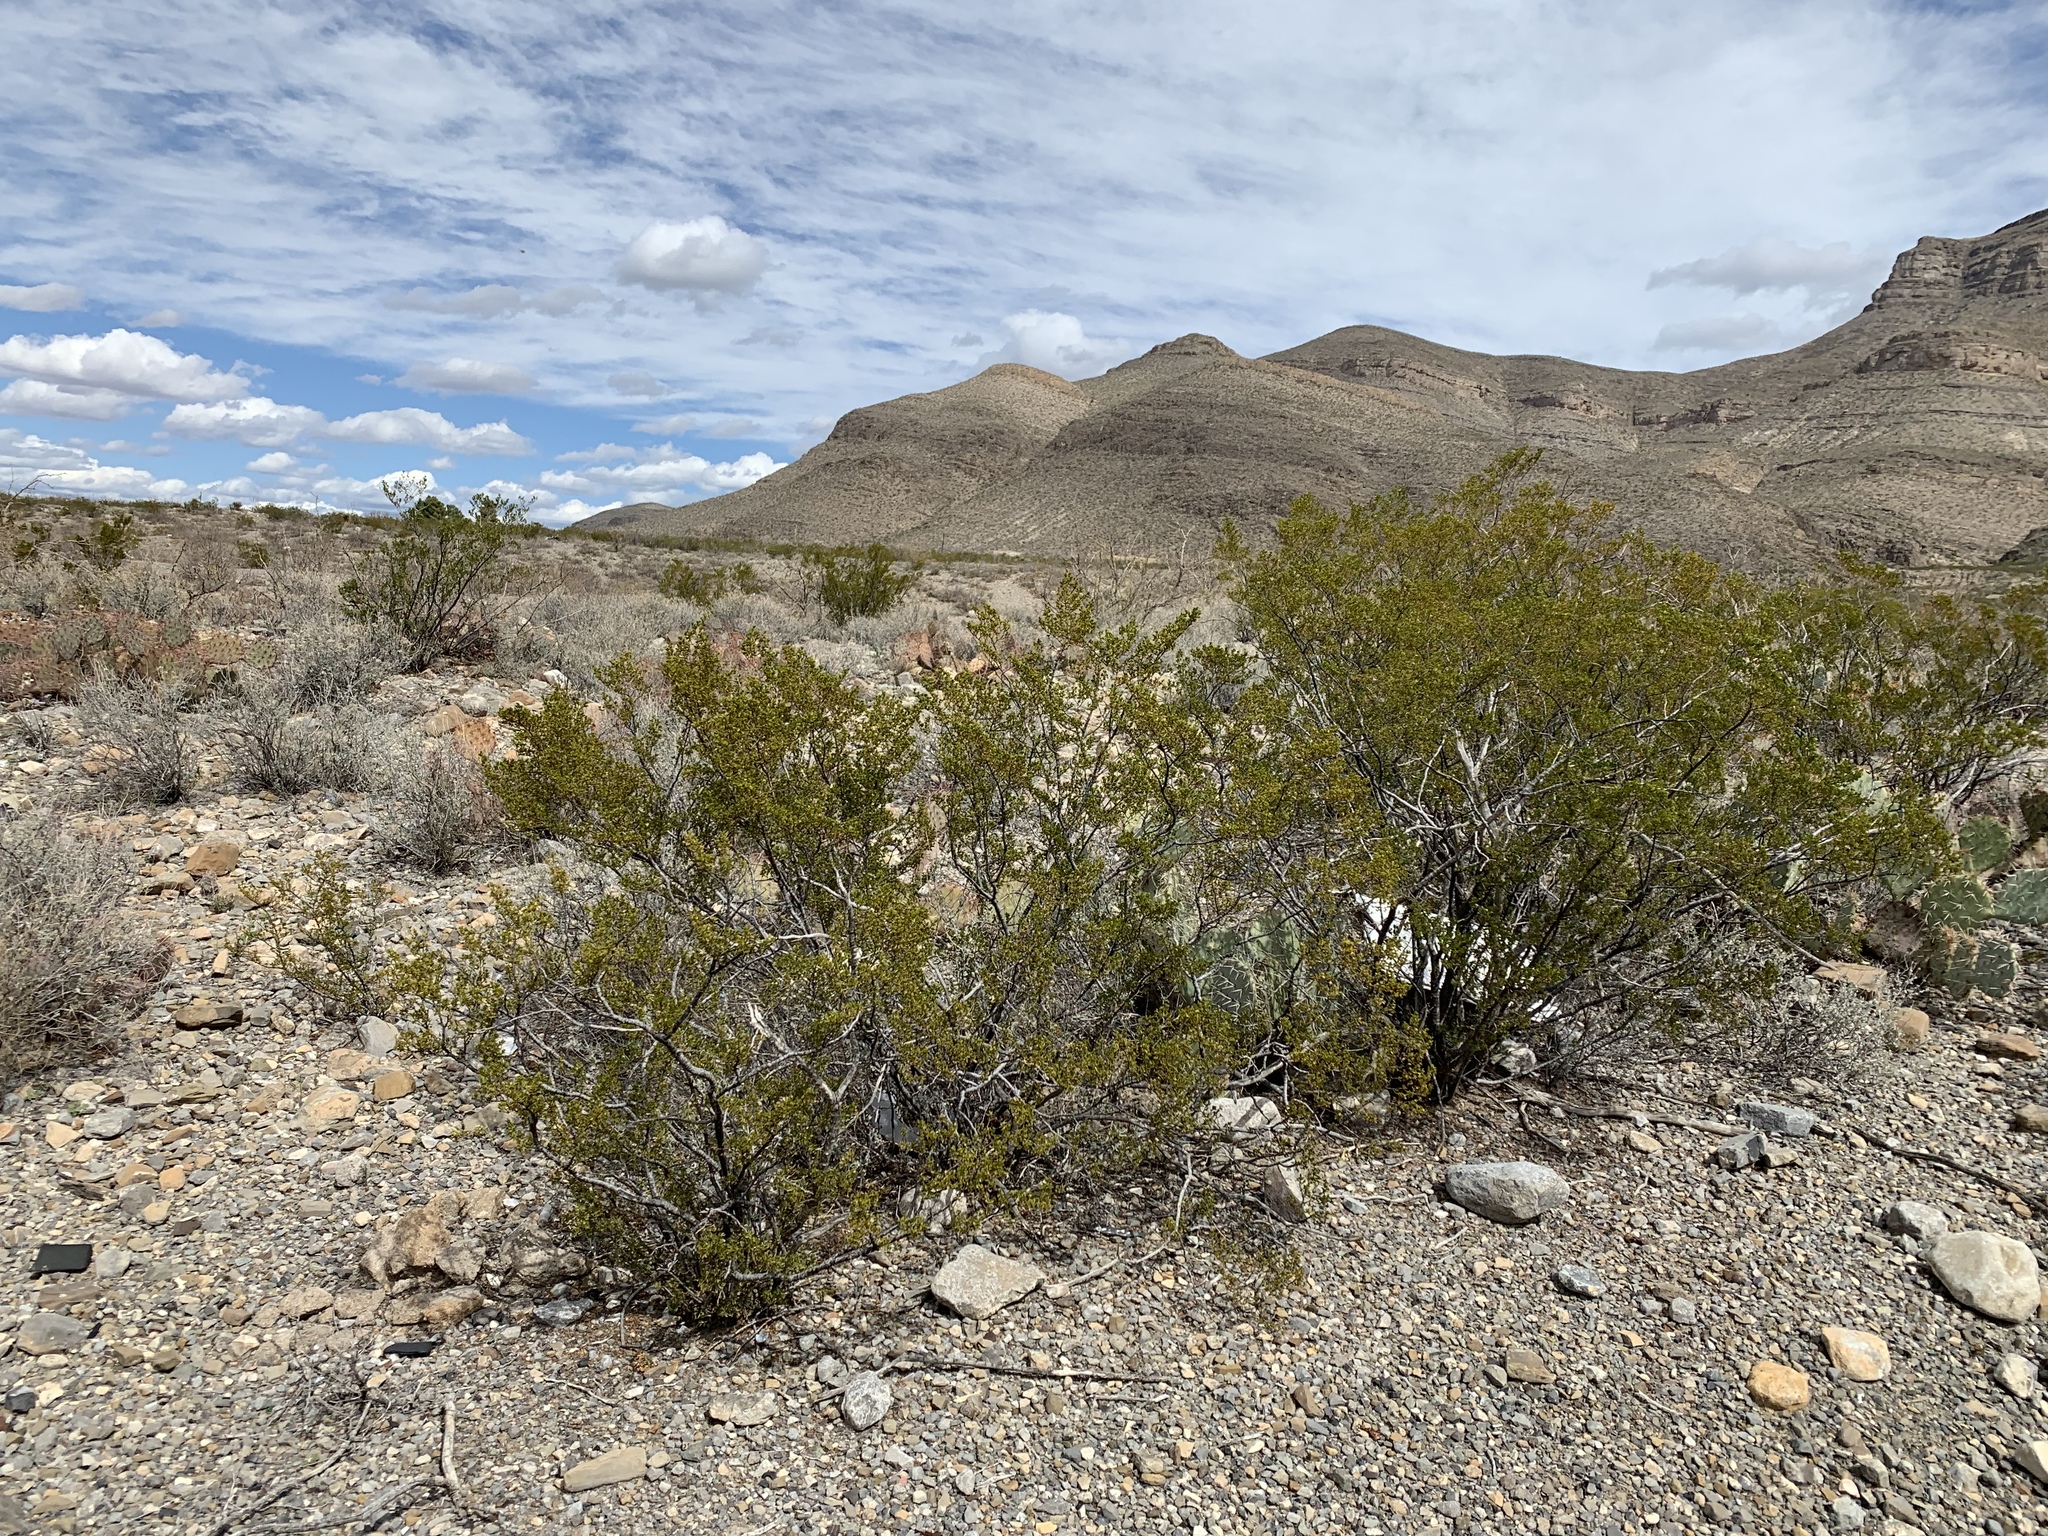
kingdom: Plantae
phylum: Tracheophyta
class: Magnoliopsida
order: Zygophyllales
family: Zygophyllaceae
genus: Larrea
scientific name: Larrea tridentata
